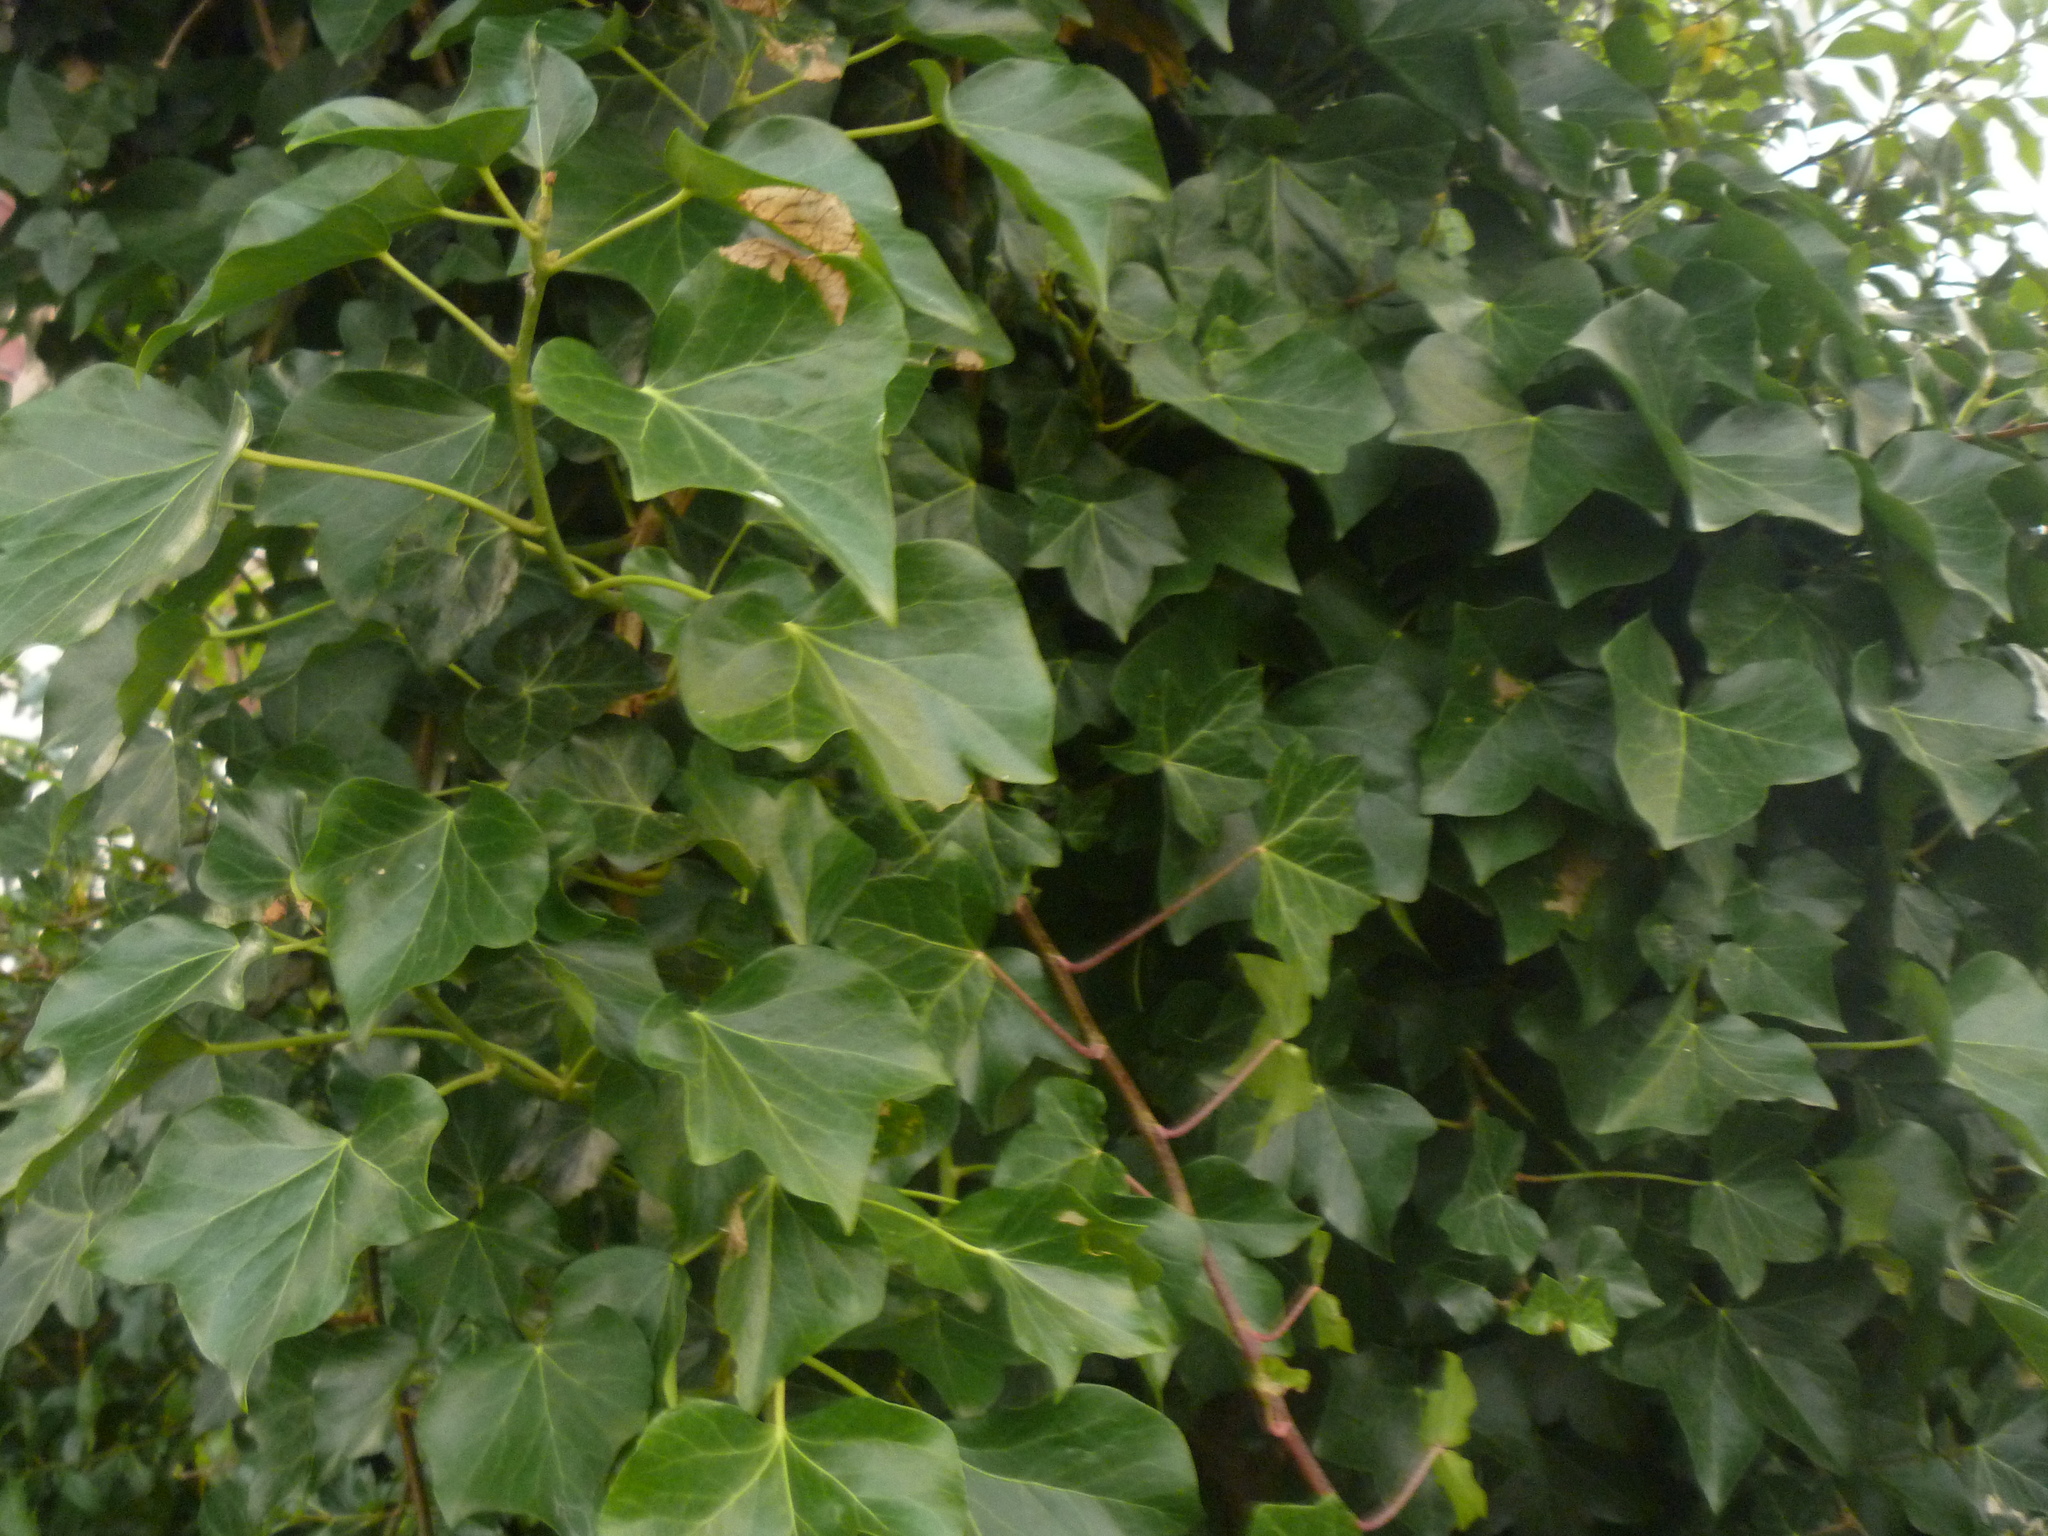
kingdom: Plantae
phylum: Tracheophyta
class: Magnoliopsida
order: Apiales
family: Araliaceae
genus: Hedera
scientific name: Hedera helix
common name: Ivy
